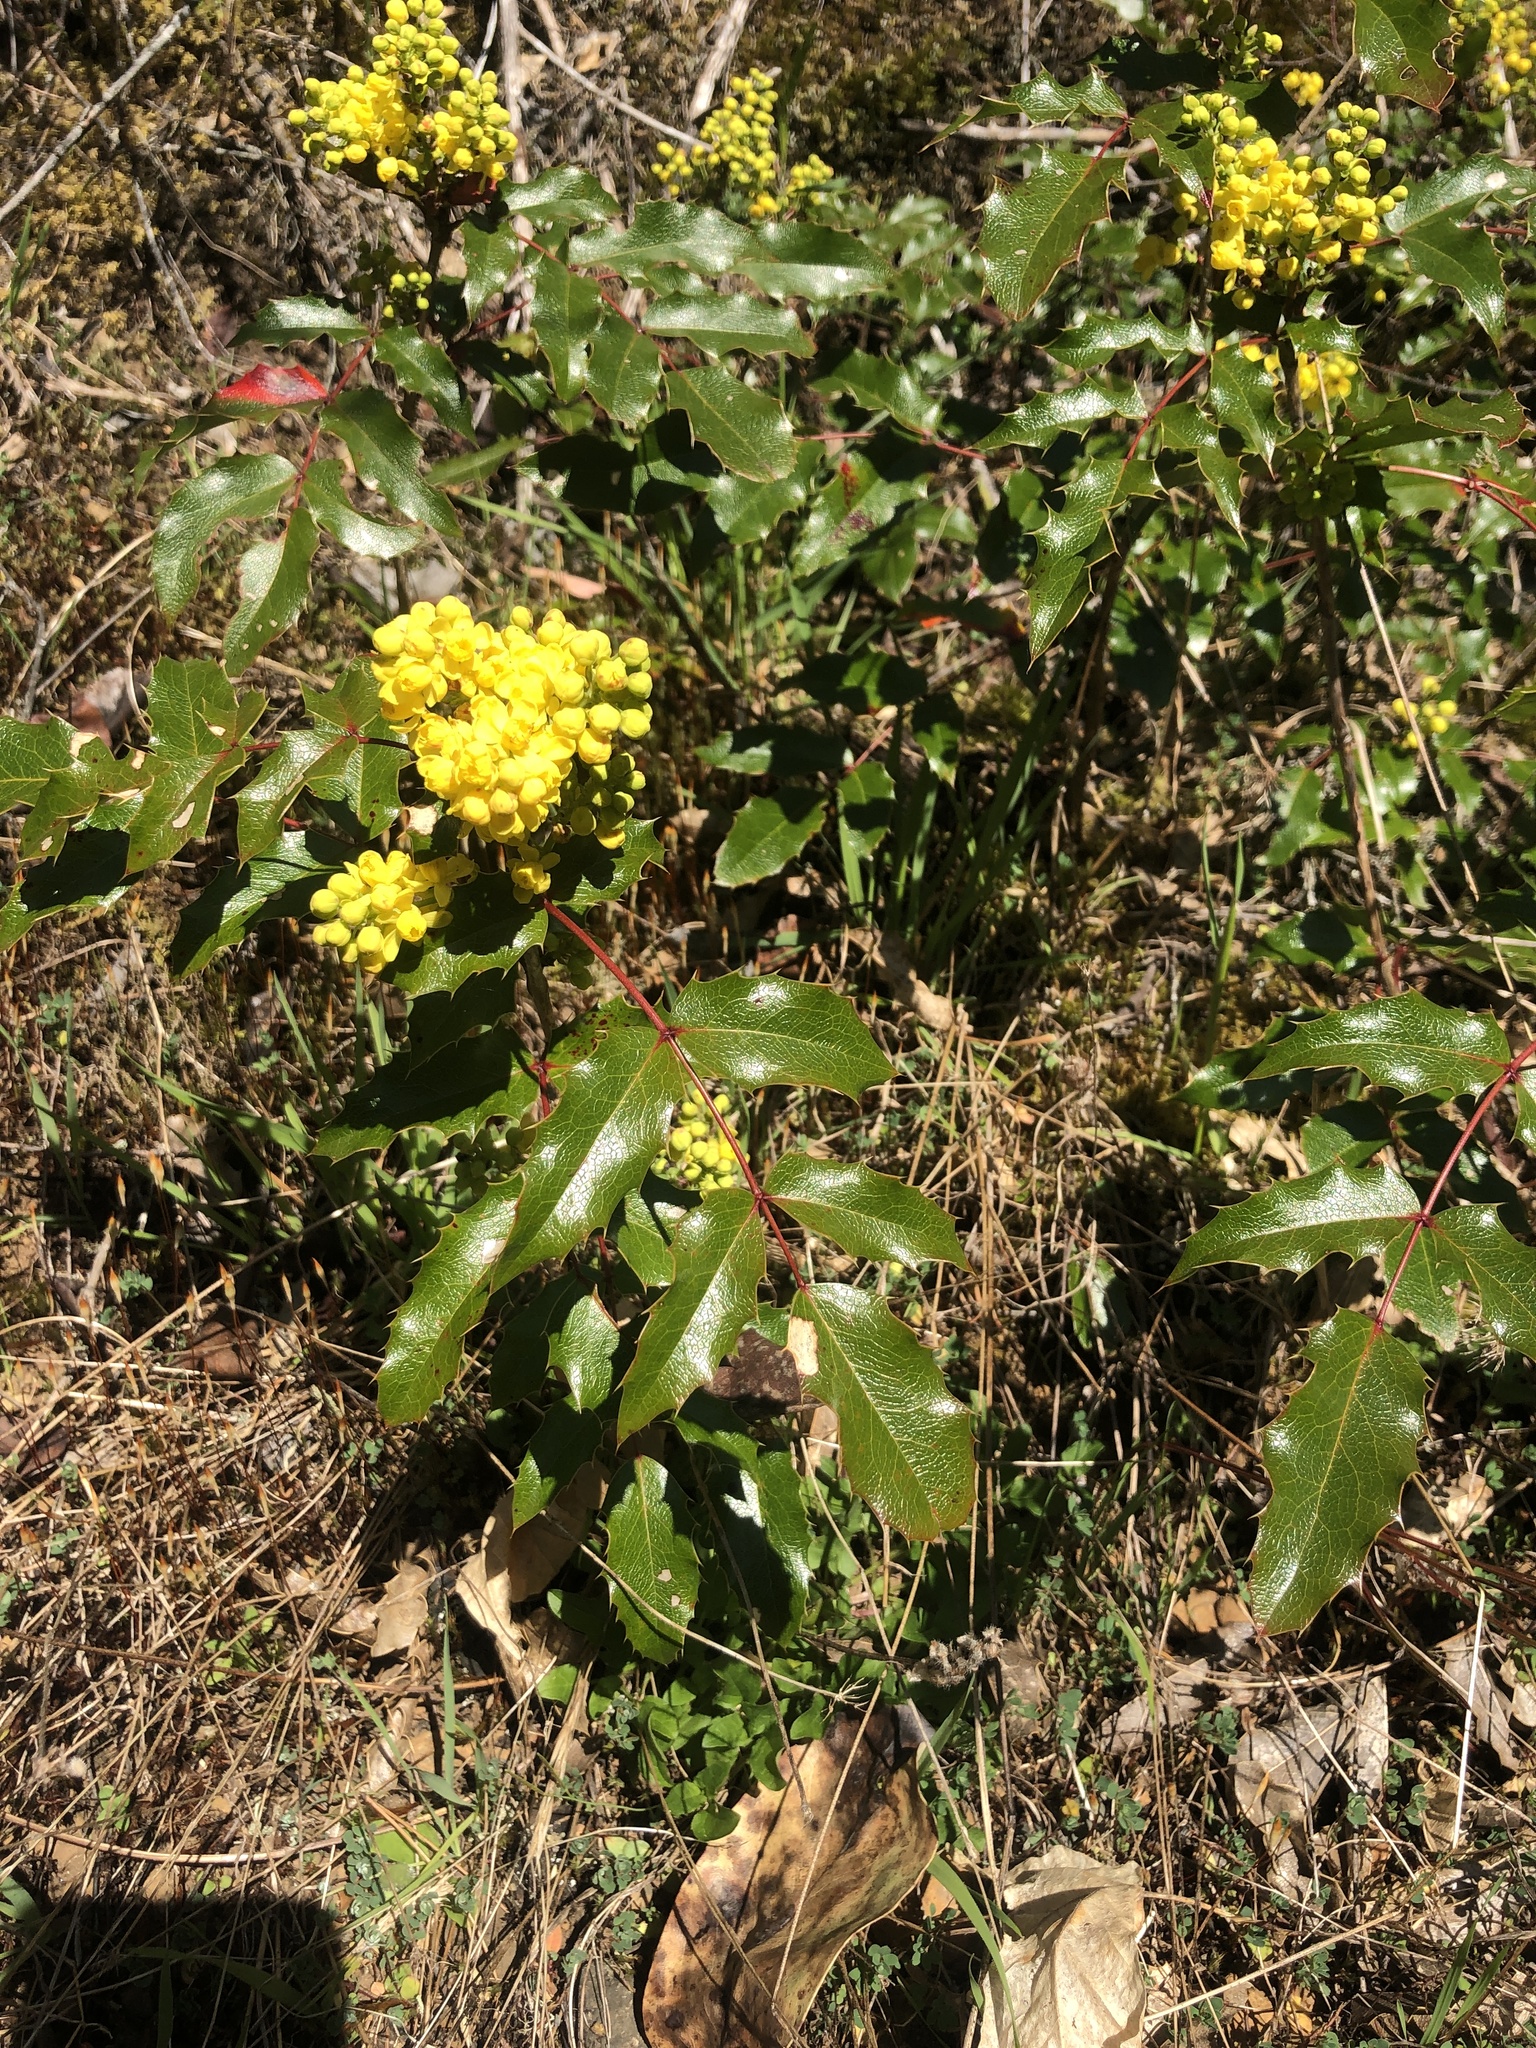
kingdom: Plantae
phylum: Tracheophyta
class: Magnoliopsida
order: Ranunculales
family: Berberidaceae
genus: Mahonia
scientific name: Mahonia aquifolium
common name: Oregon-grape
